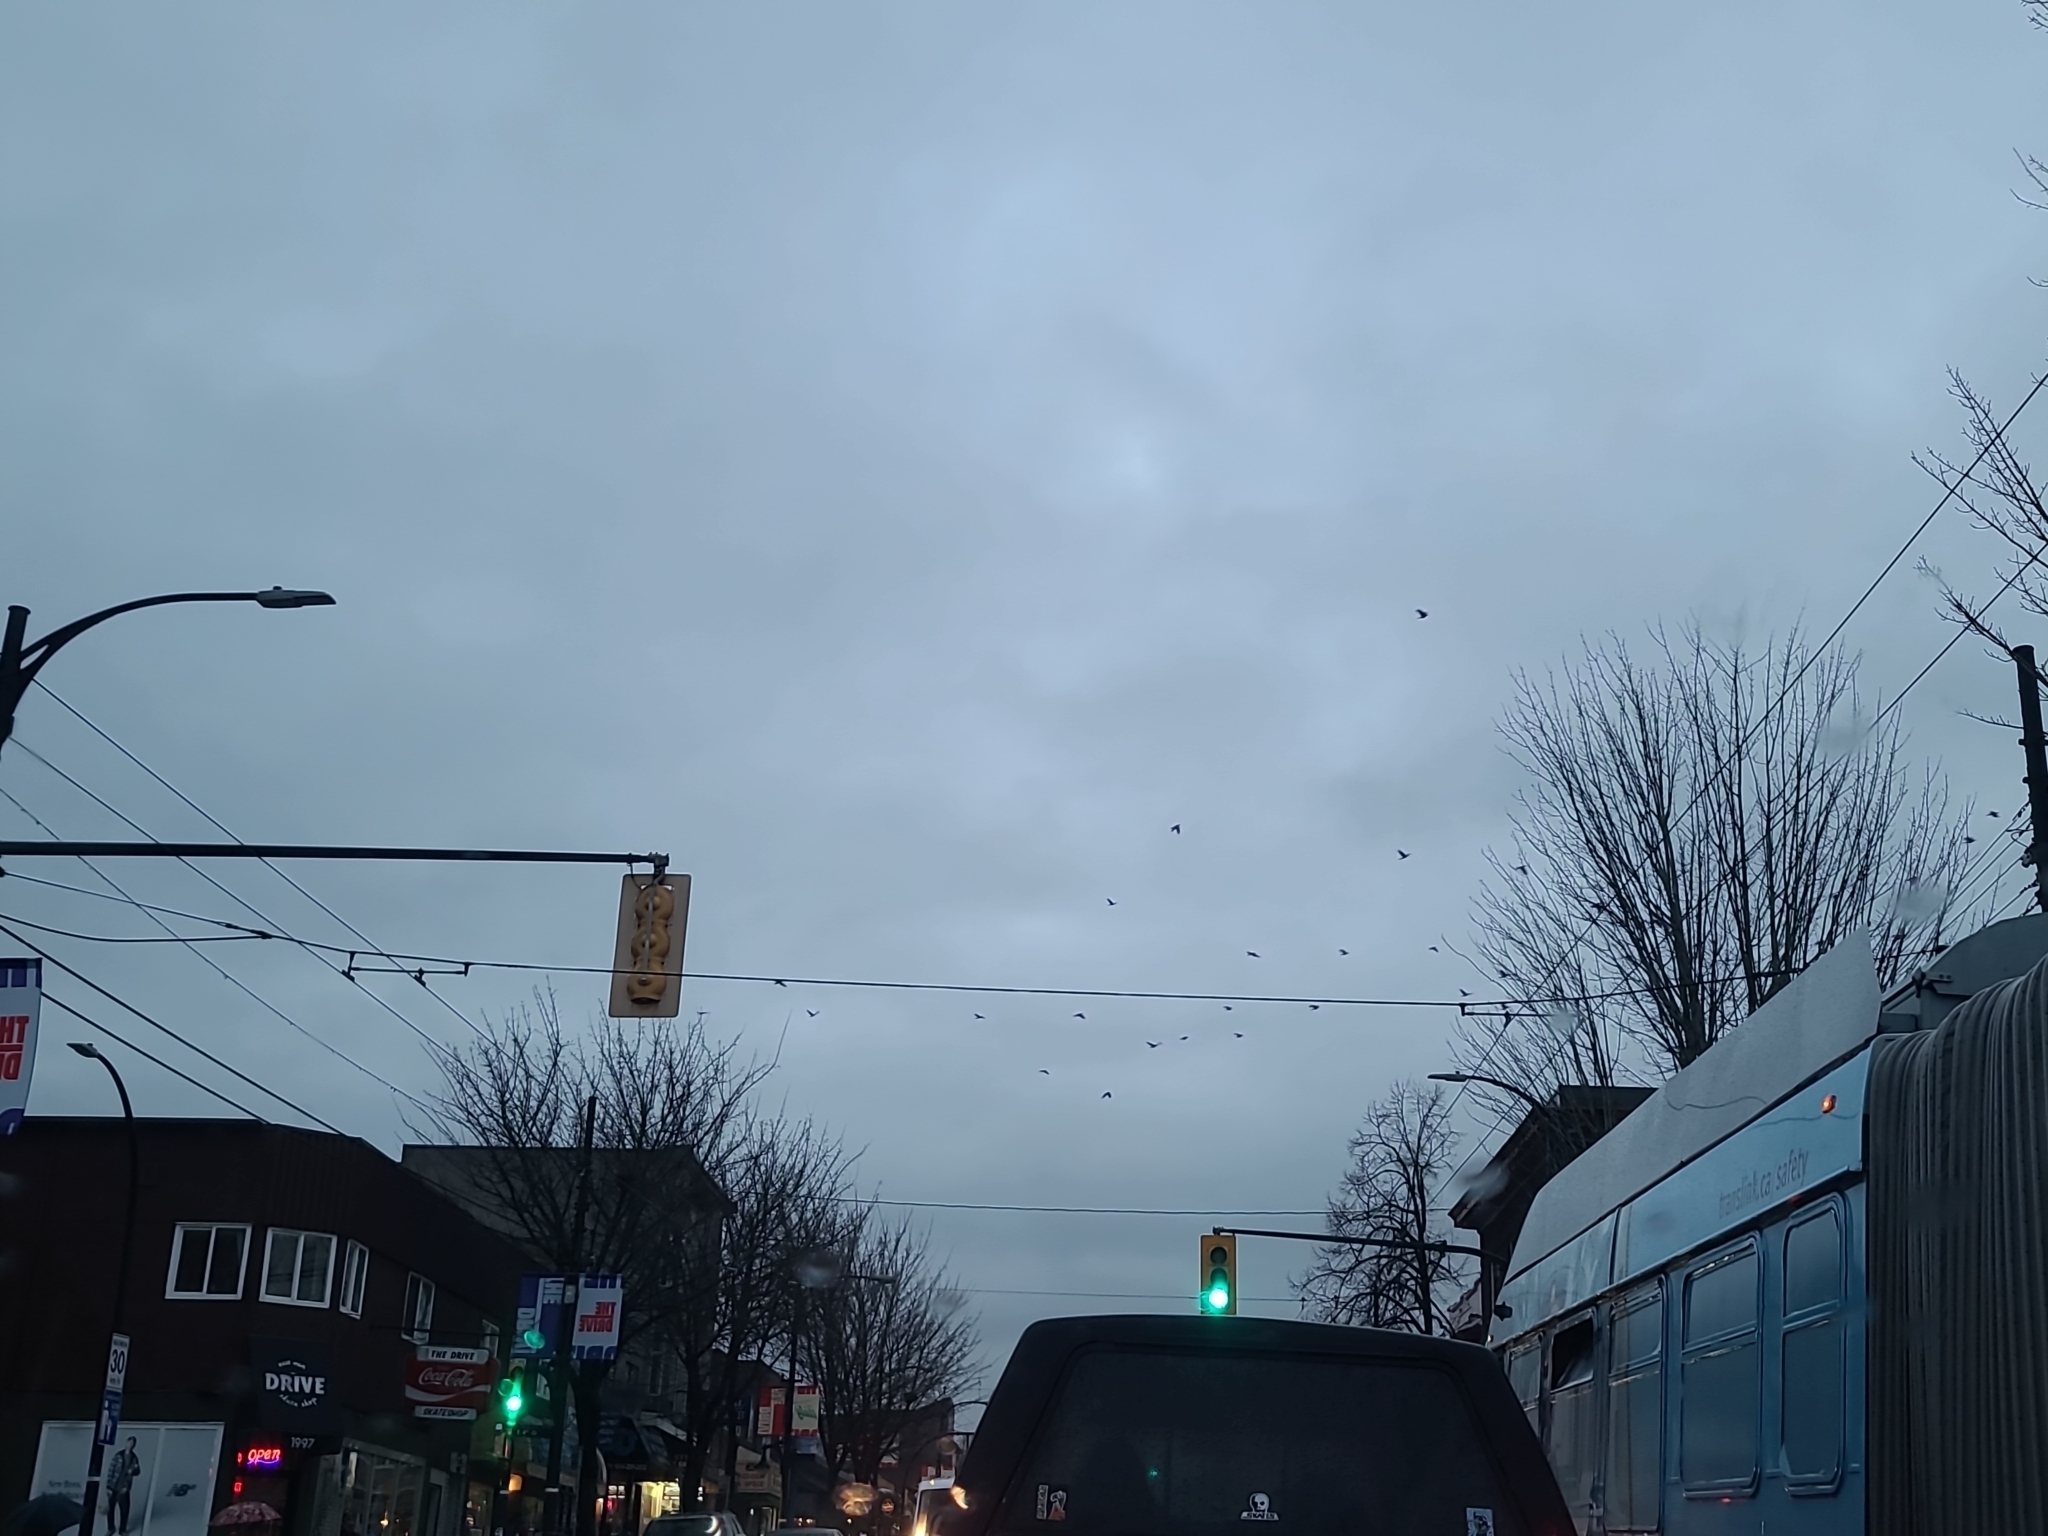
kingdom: Animalia
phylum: Chordata
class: Aves
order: Passeriformes
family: Corvidae
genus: Corvus
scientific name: Corvus brachyrhynchos
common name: American crow
